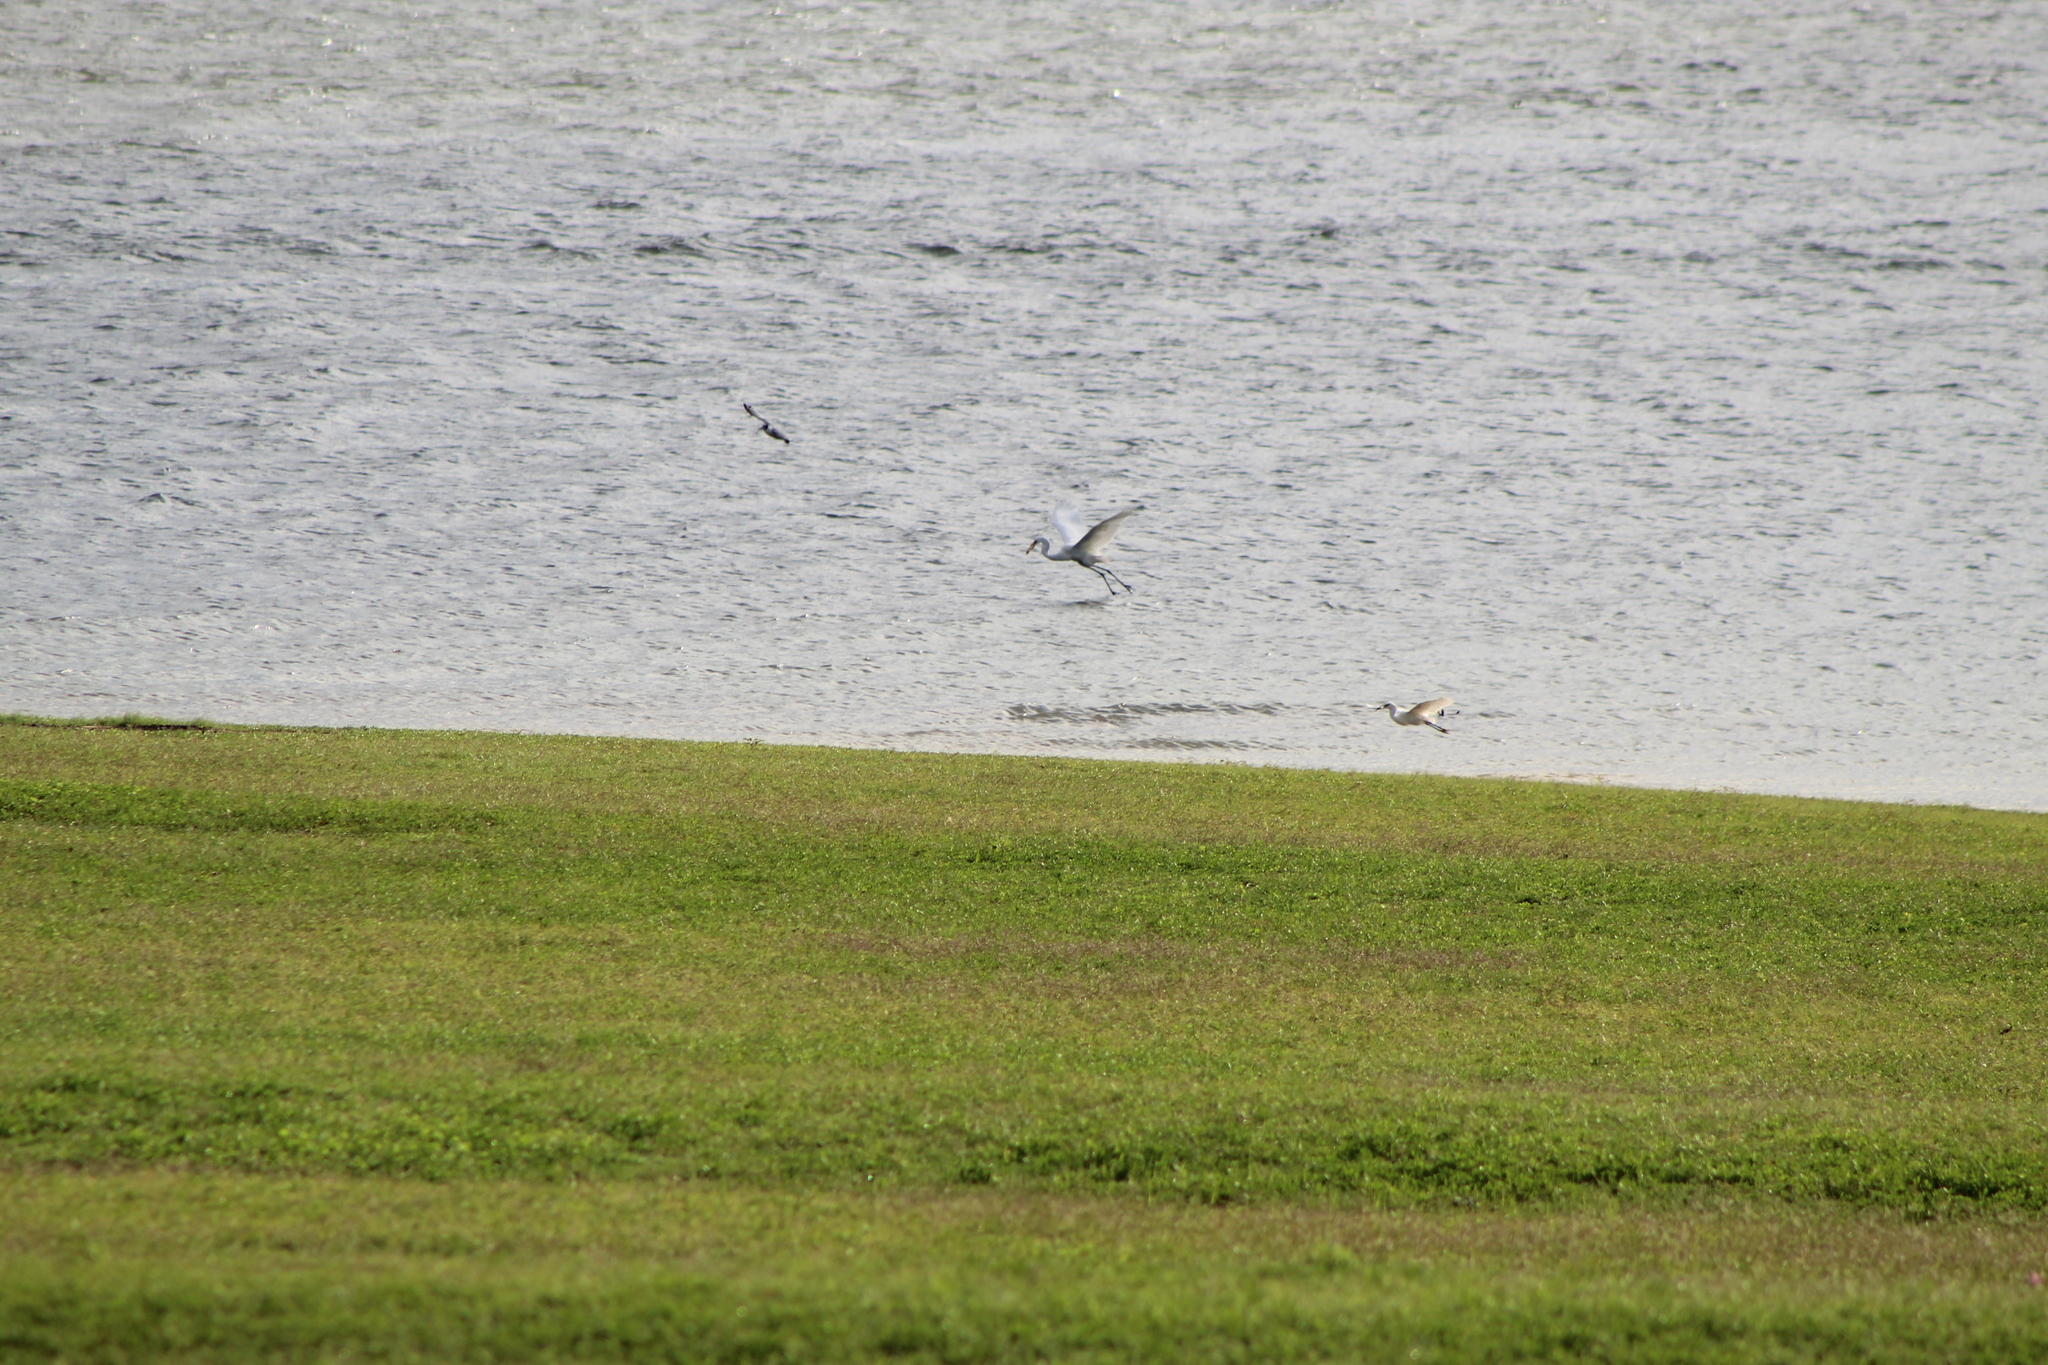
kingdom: Animalia
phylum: Chordata
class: Aves
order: Charadriiformes
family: Laridae
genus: Leucophaeus
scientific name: Leucophaeus pipixcan
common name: Franklin's gull
